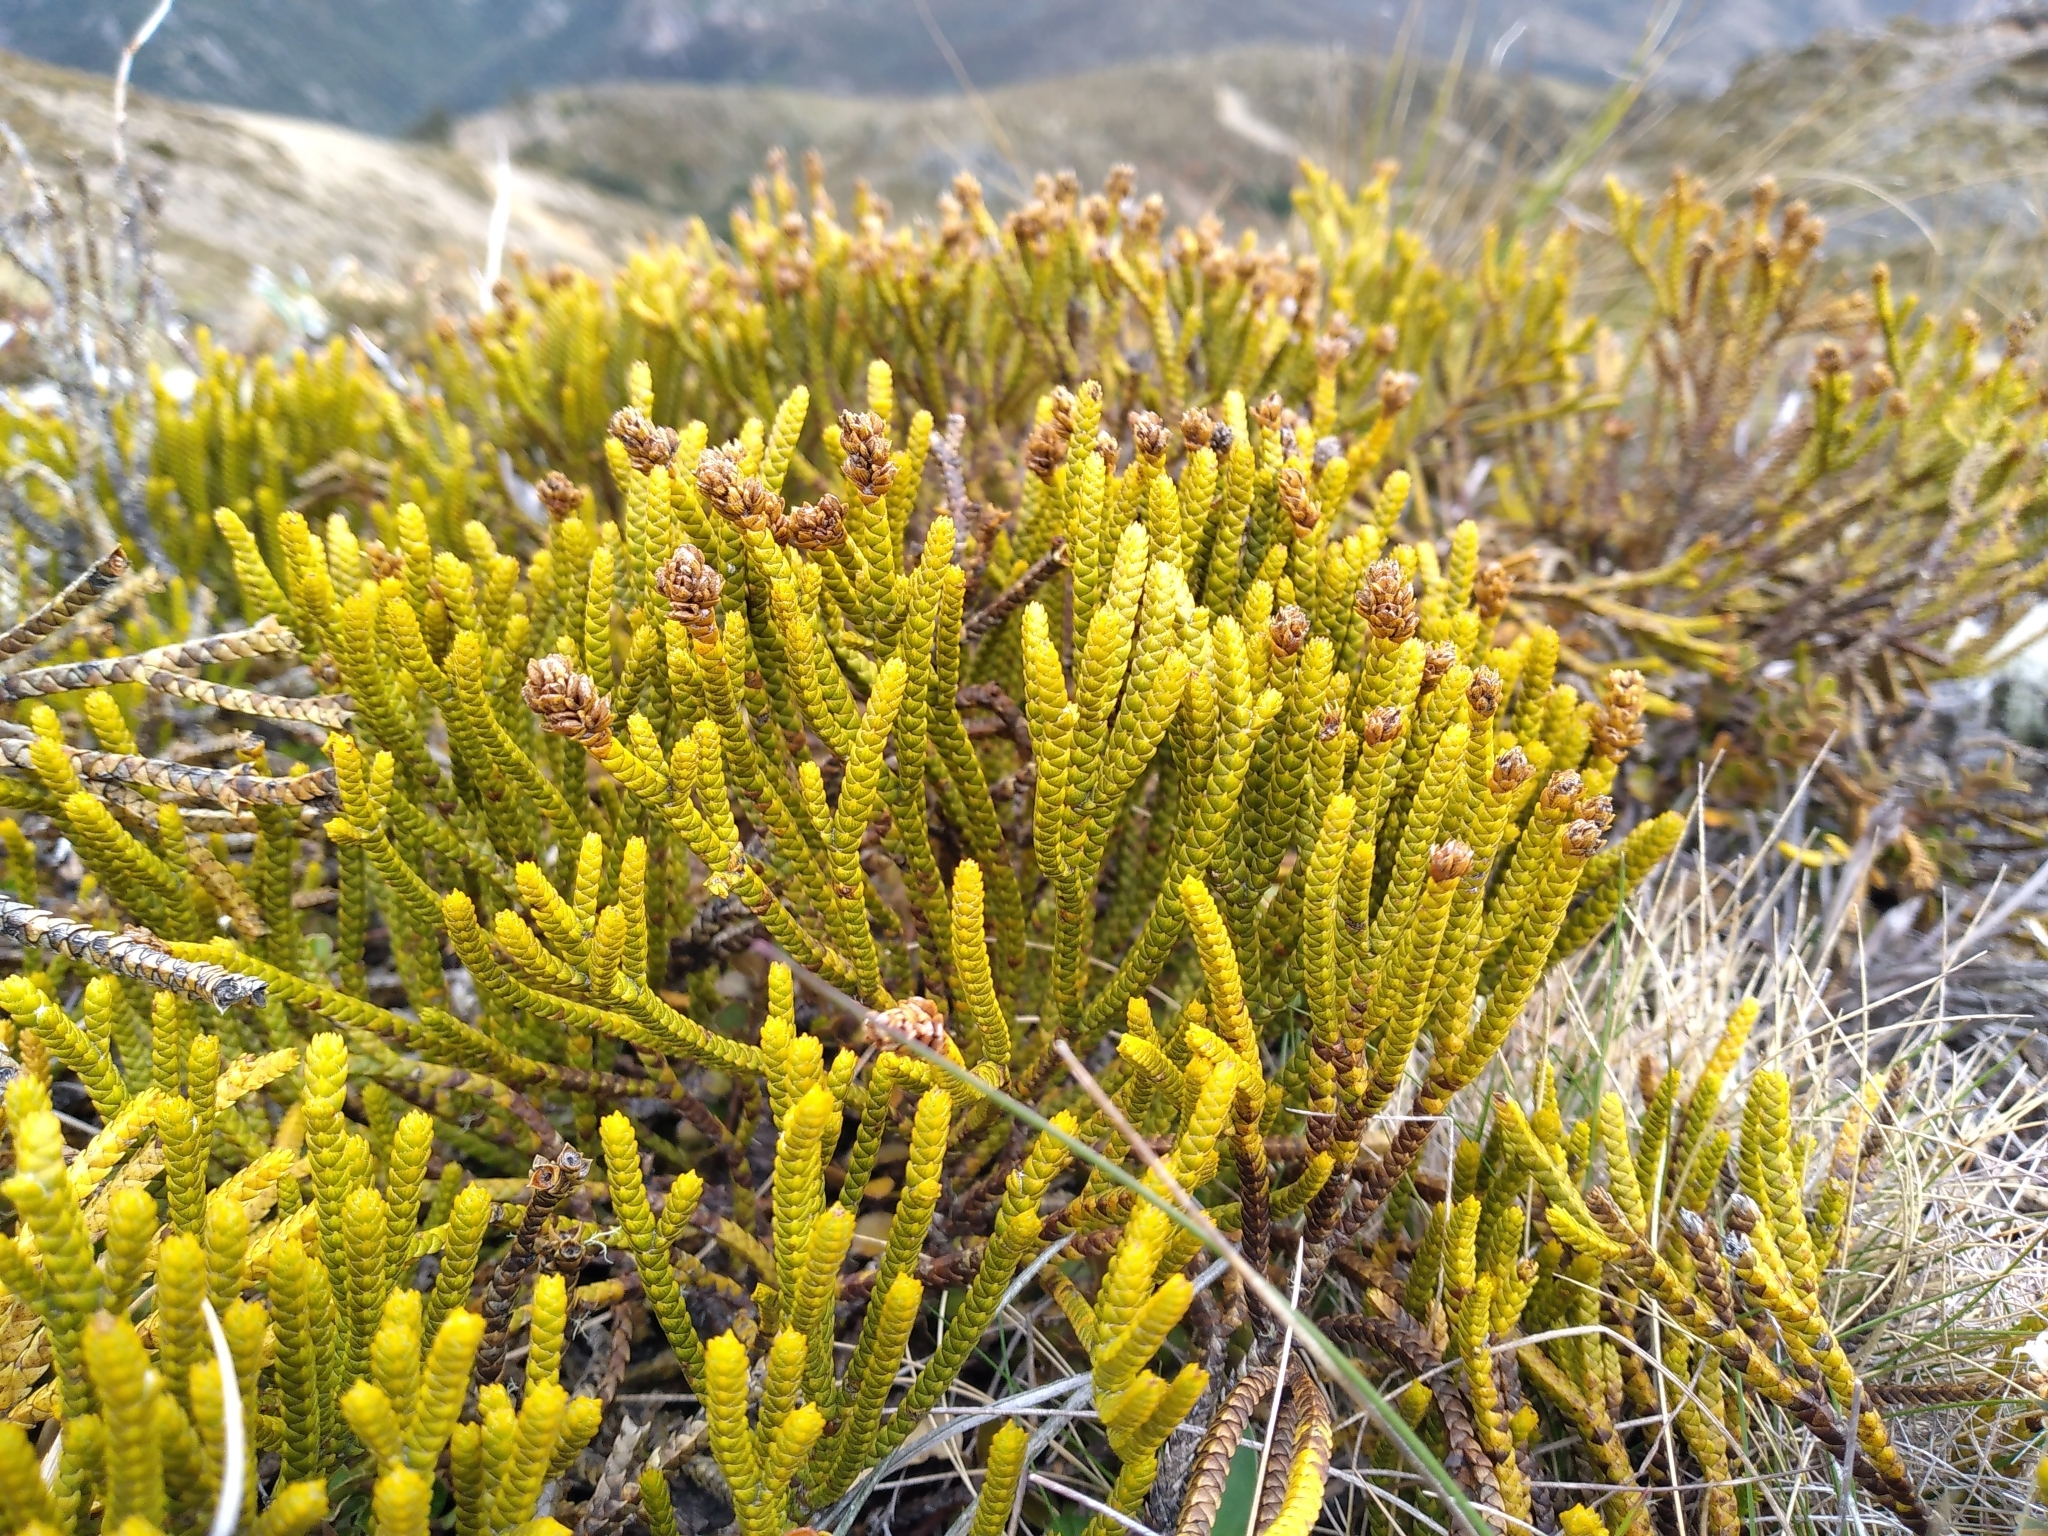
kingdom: Plantae
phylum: Tracheophyta
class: Magnoliopsida
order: Lamiales
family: Plantaginaceae
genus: Veronica
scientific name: Veronica lycopodioides
